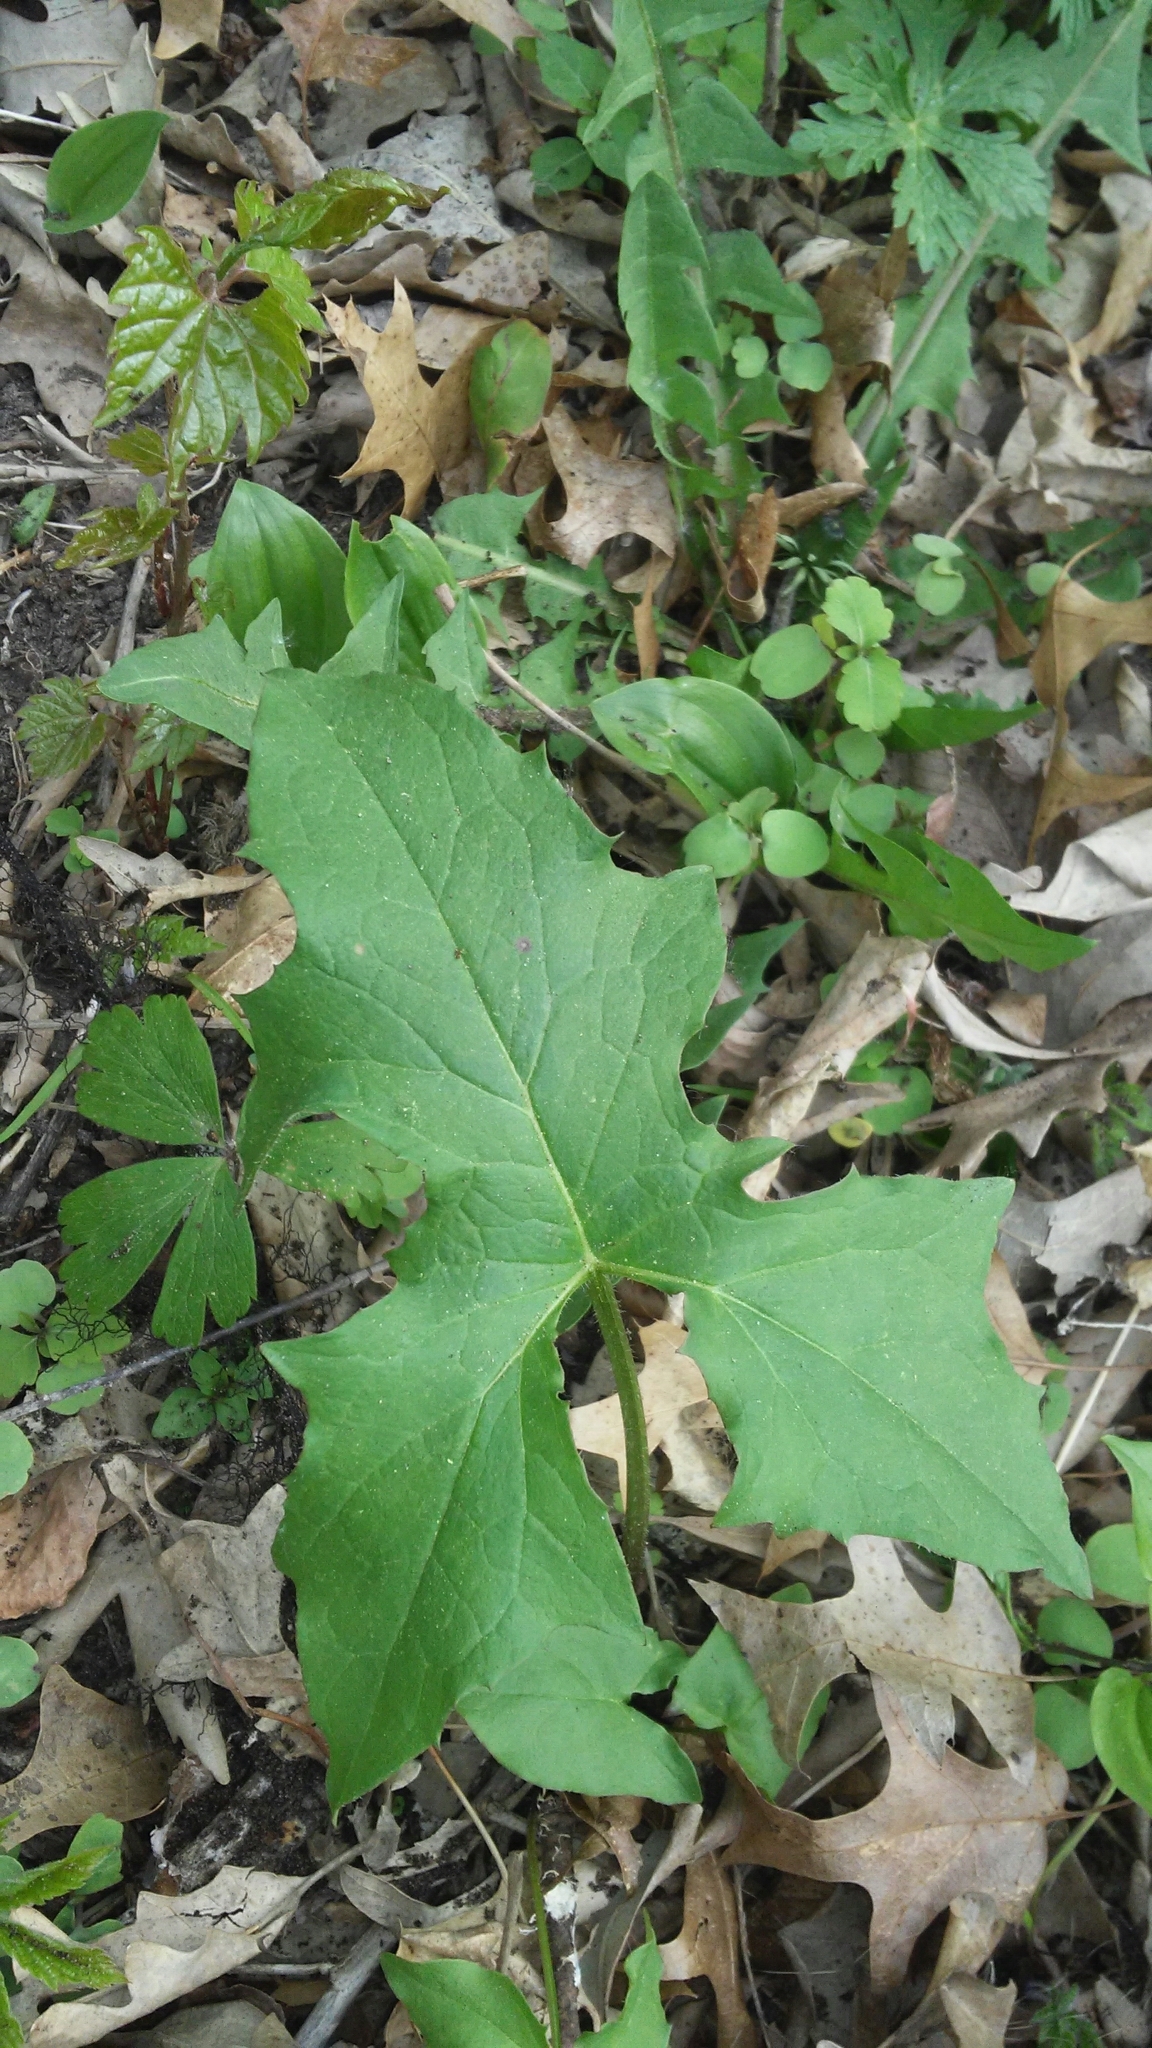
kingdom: Plantae
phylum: Tracheophyta
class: Magnoliopsida
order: Asterales
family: Asteraceae
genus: Nabalus
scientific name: Nabalus albus
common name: White rattlesnakeroot
